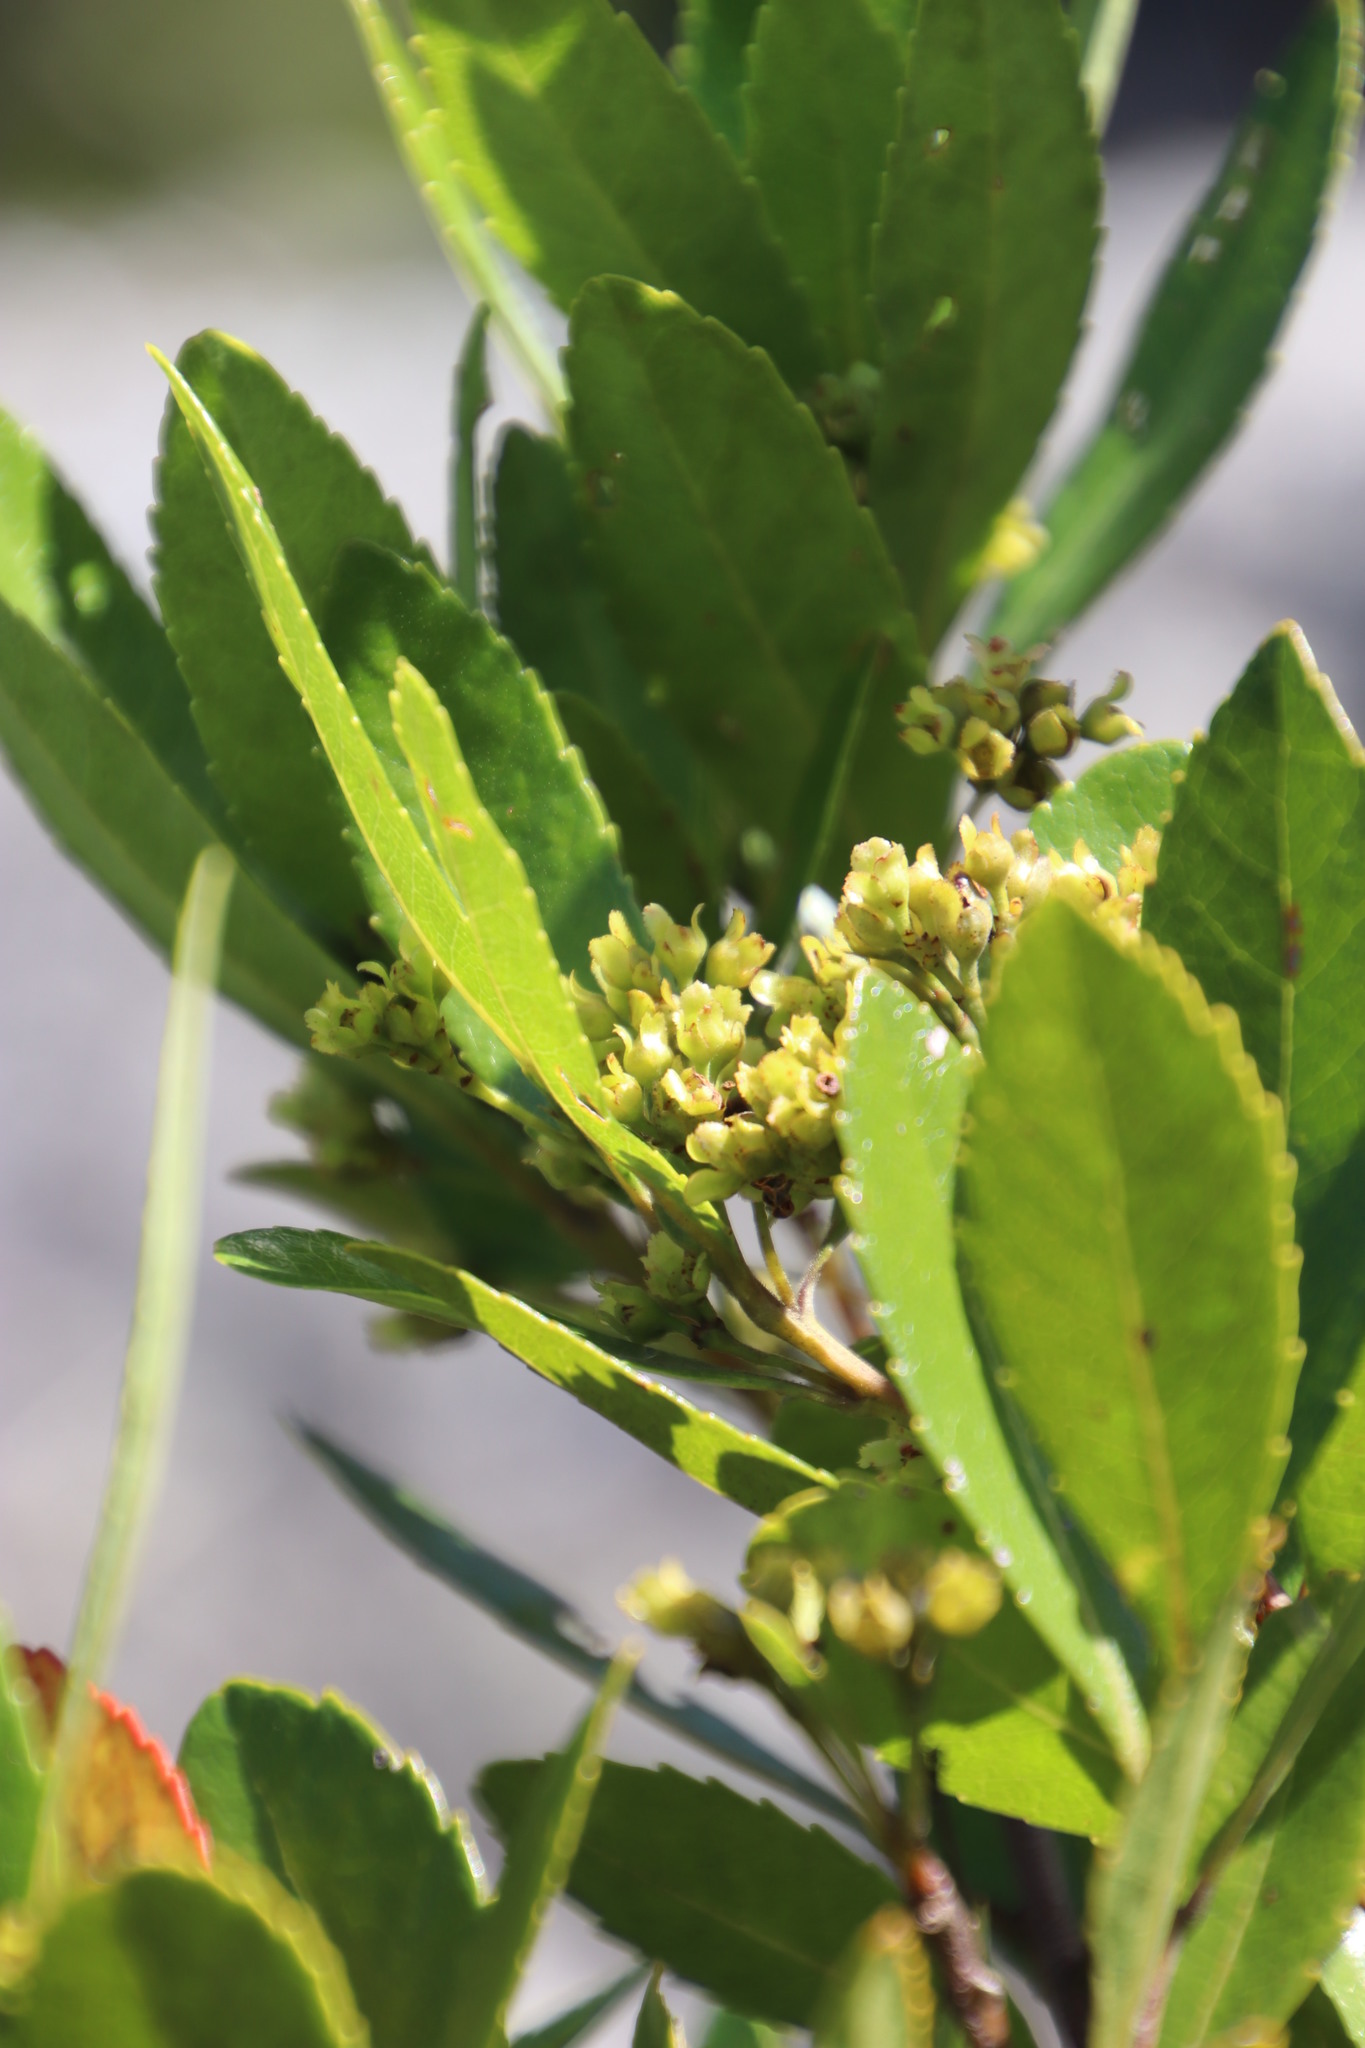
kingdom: Plantae
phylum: Tracheophyta
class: Magnoliopsida
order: Huerteales
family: Gerrardinaceae
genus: Gerrardina
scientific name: Gerrardina foliosa
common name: Krantz-berry
